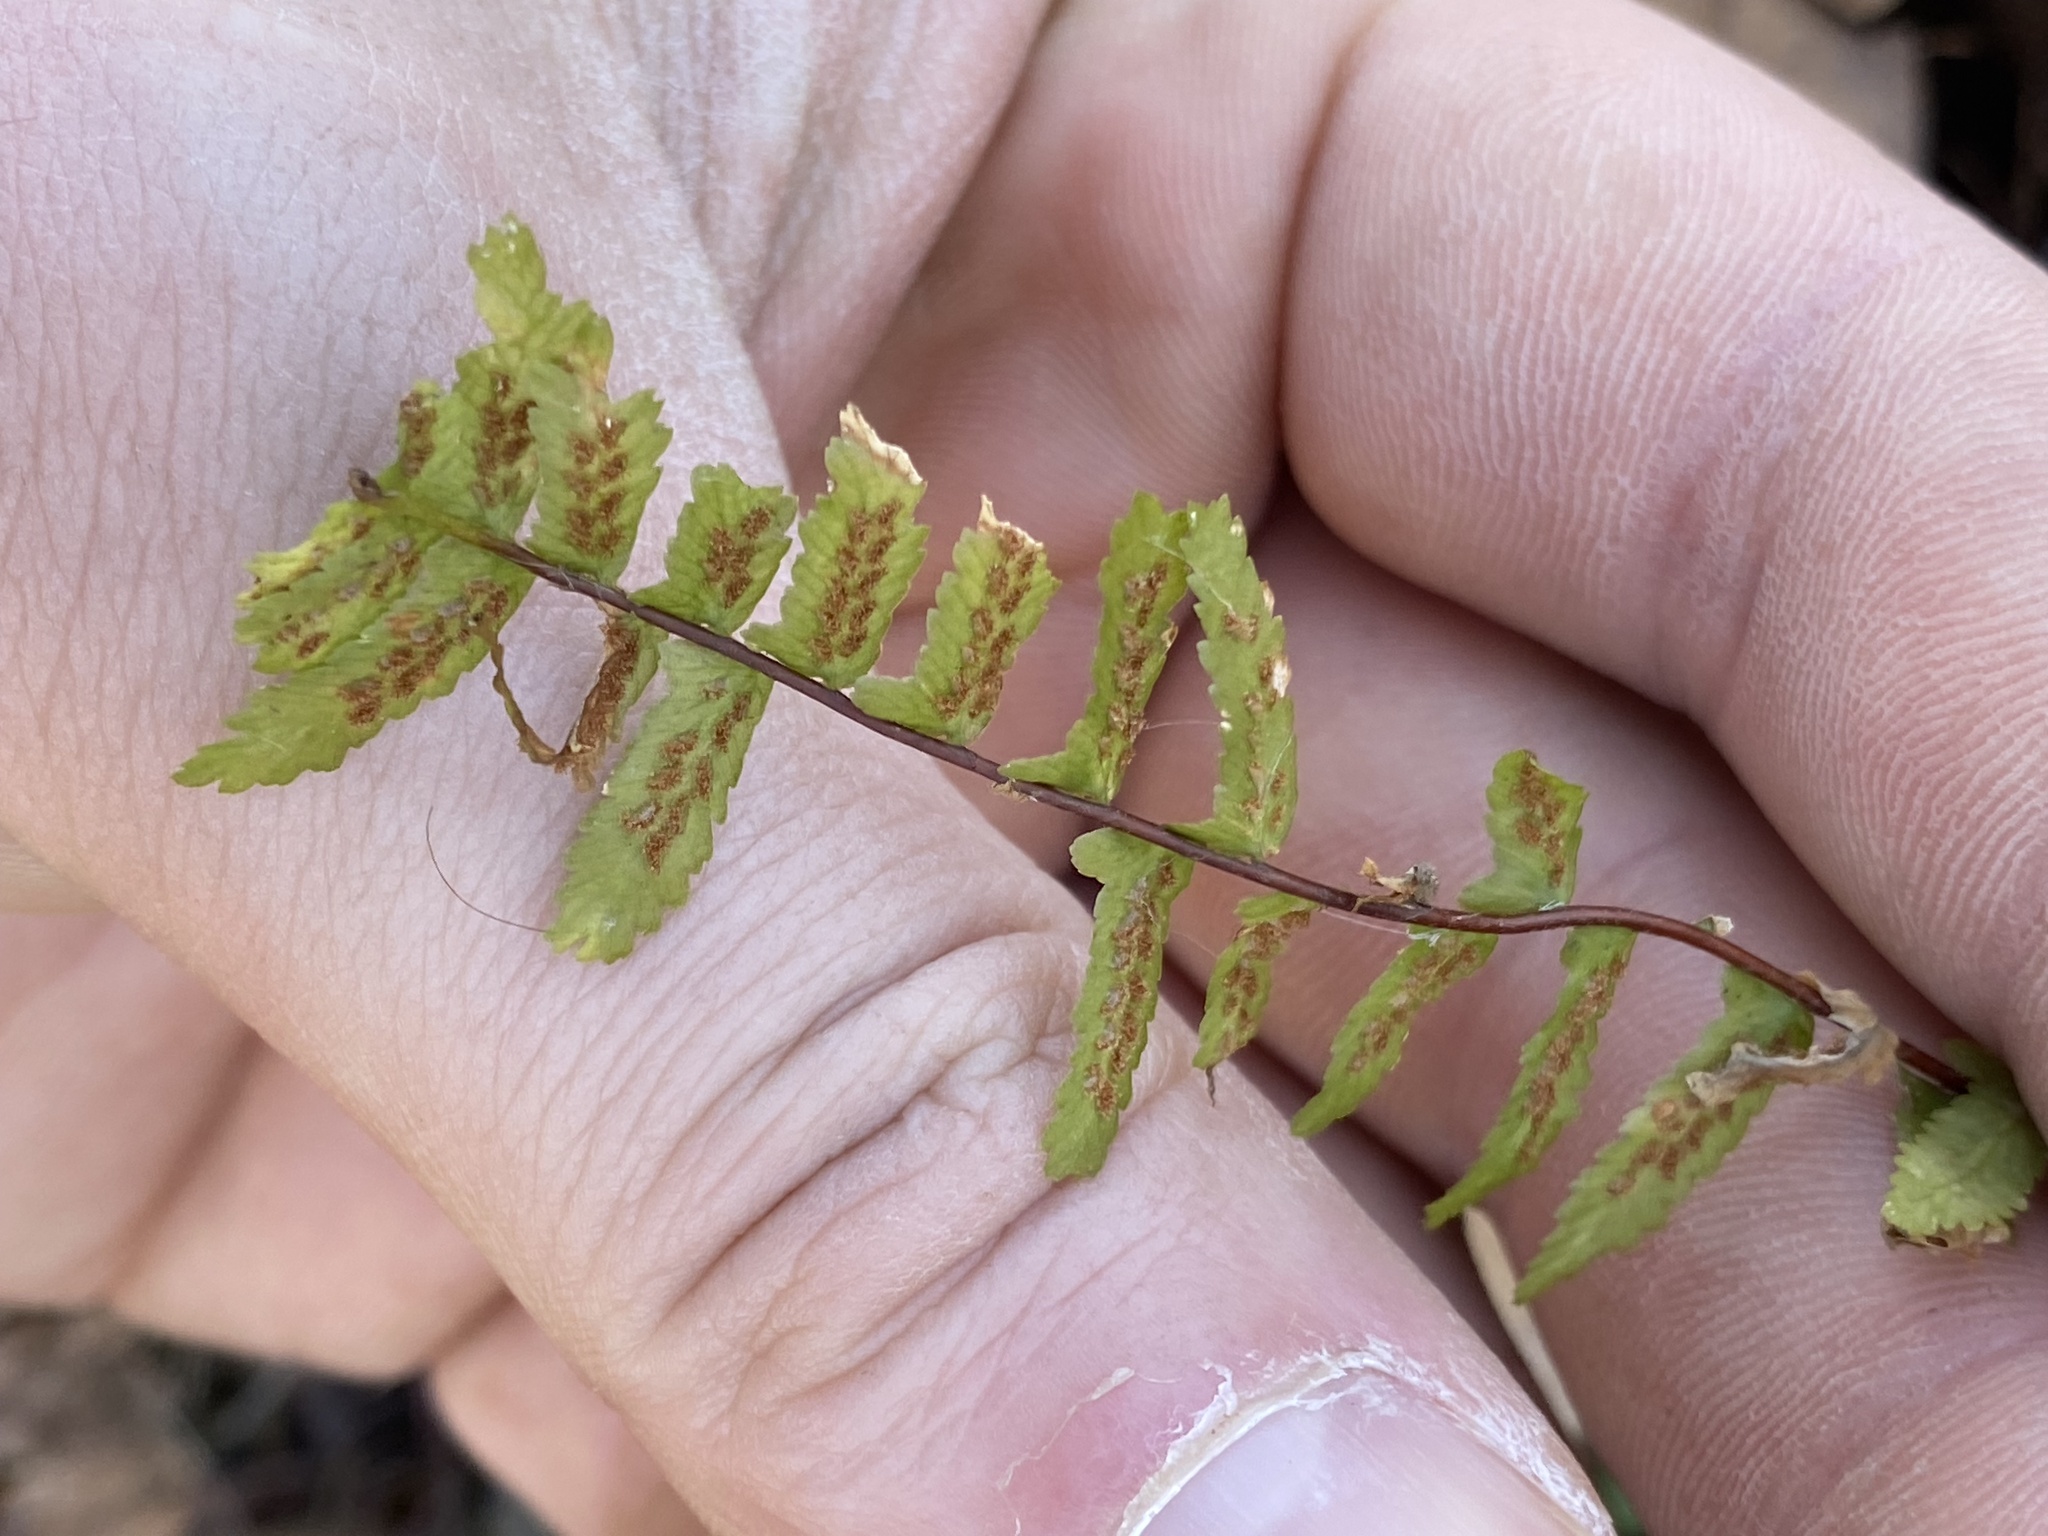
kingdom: Plantae
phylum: Tracheophyta
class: Polypodiopsida
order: Polypodiales
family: Aspleniaceae
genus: Asplenium
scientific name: Asplenium platyneuron
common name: Ebony spleenwort
